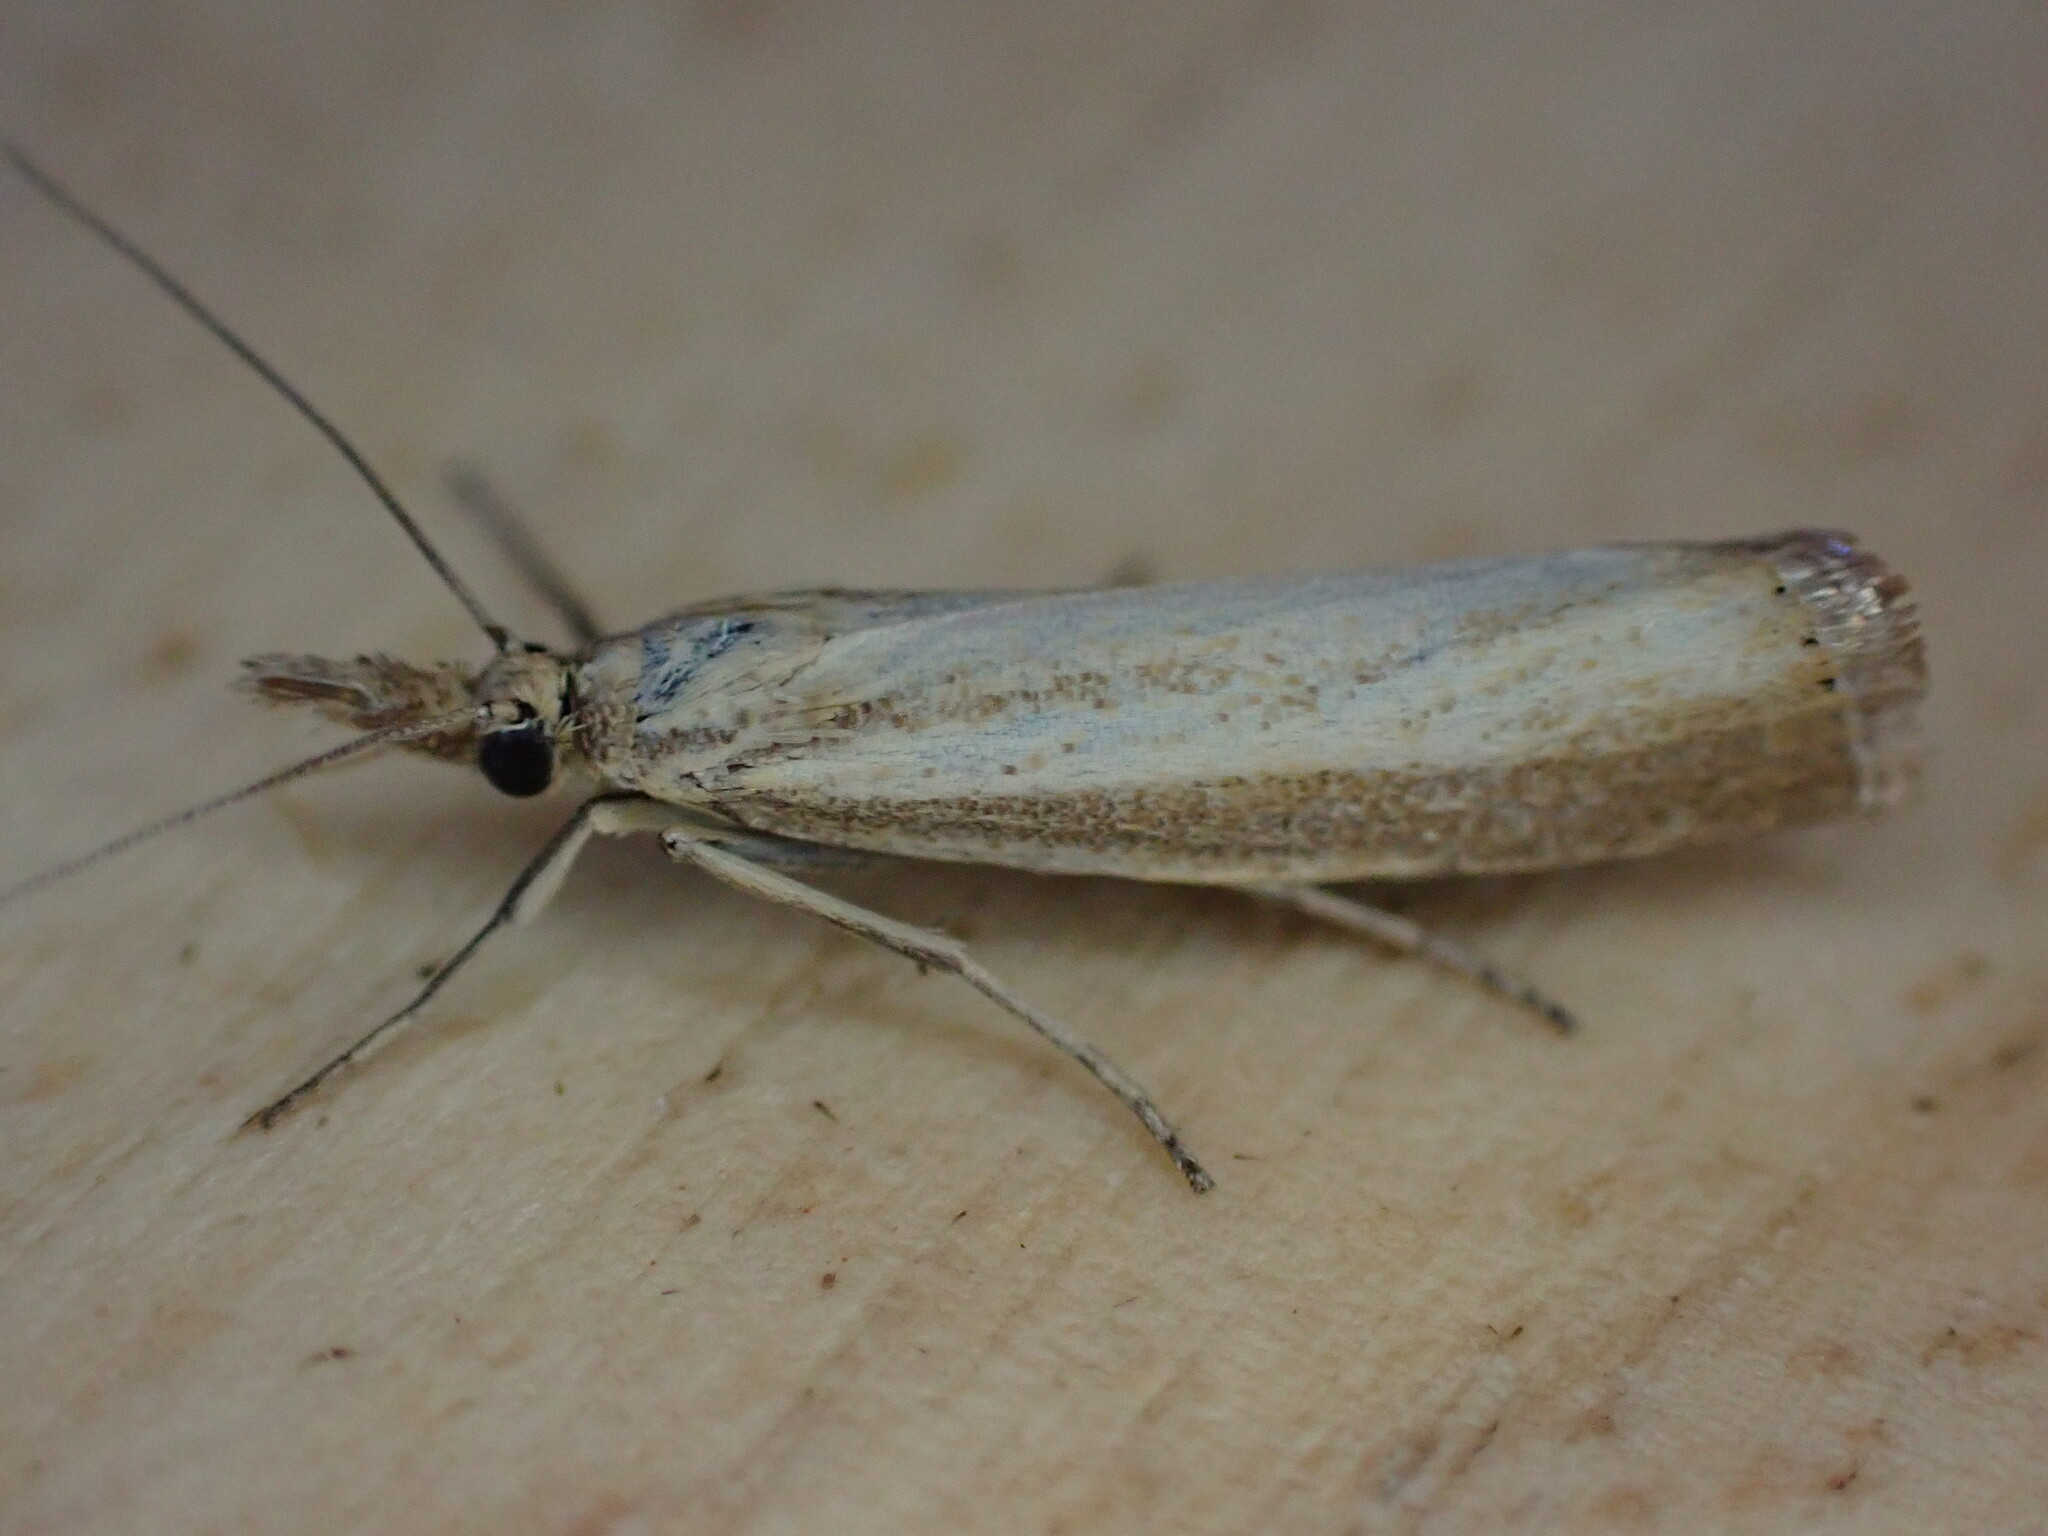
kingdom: Animalia
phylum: Arthropoda
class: Insecta
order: Lepidoptera
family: Crambidae
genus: Agriphila
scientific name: Agriphila straminella
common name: Straw grass-veneer
